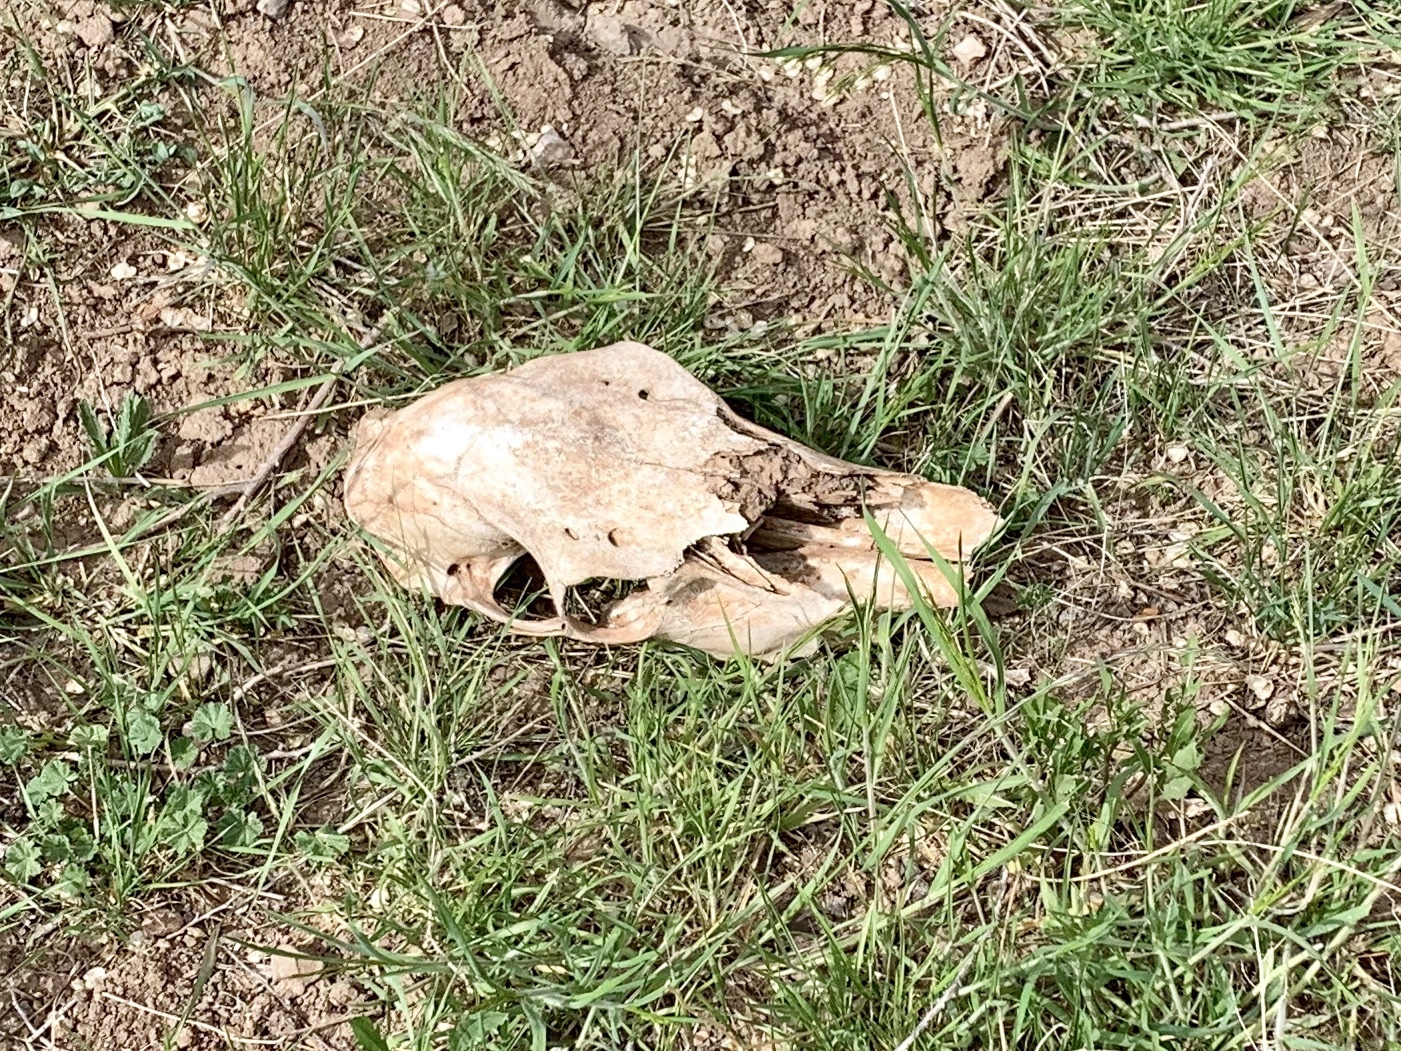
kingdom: Animalia
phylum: Chordata
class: Mammalia
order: Artiodactyla
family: Cervidae
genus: Cervus
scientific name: Cervus elaphus
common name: Red deer
